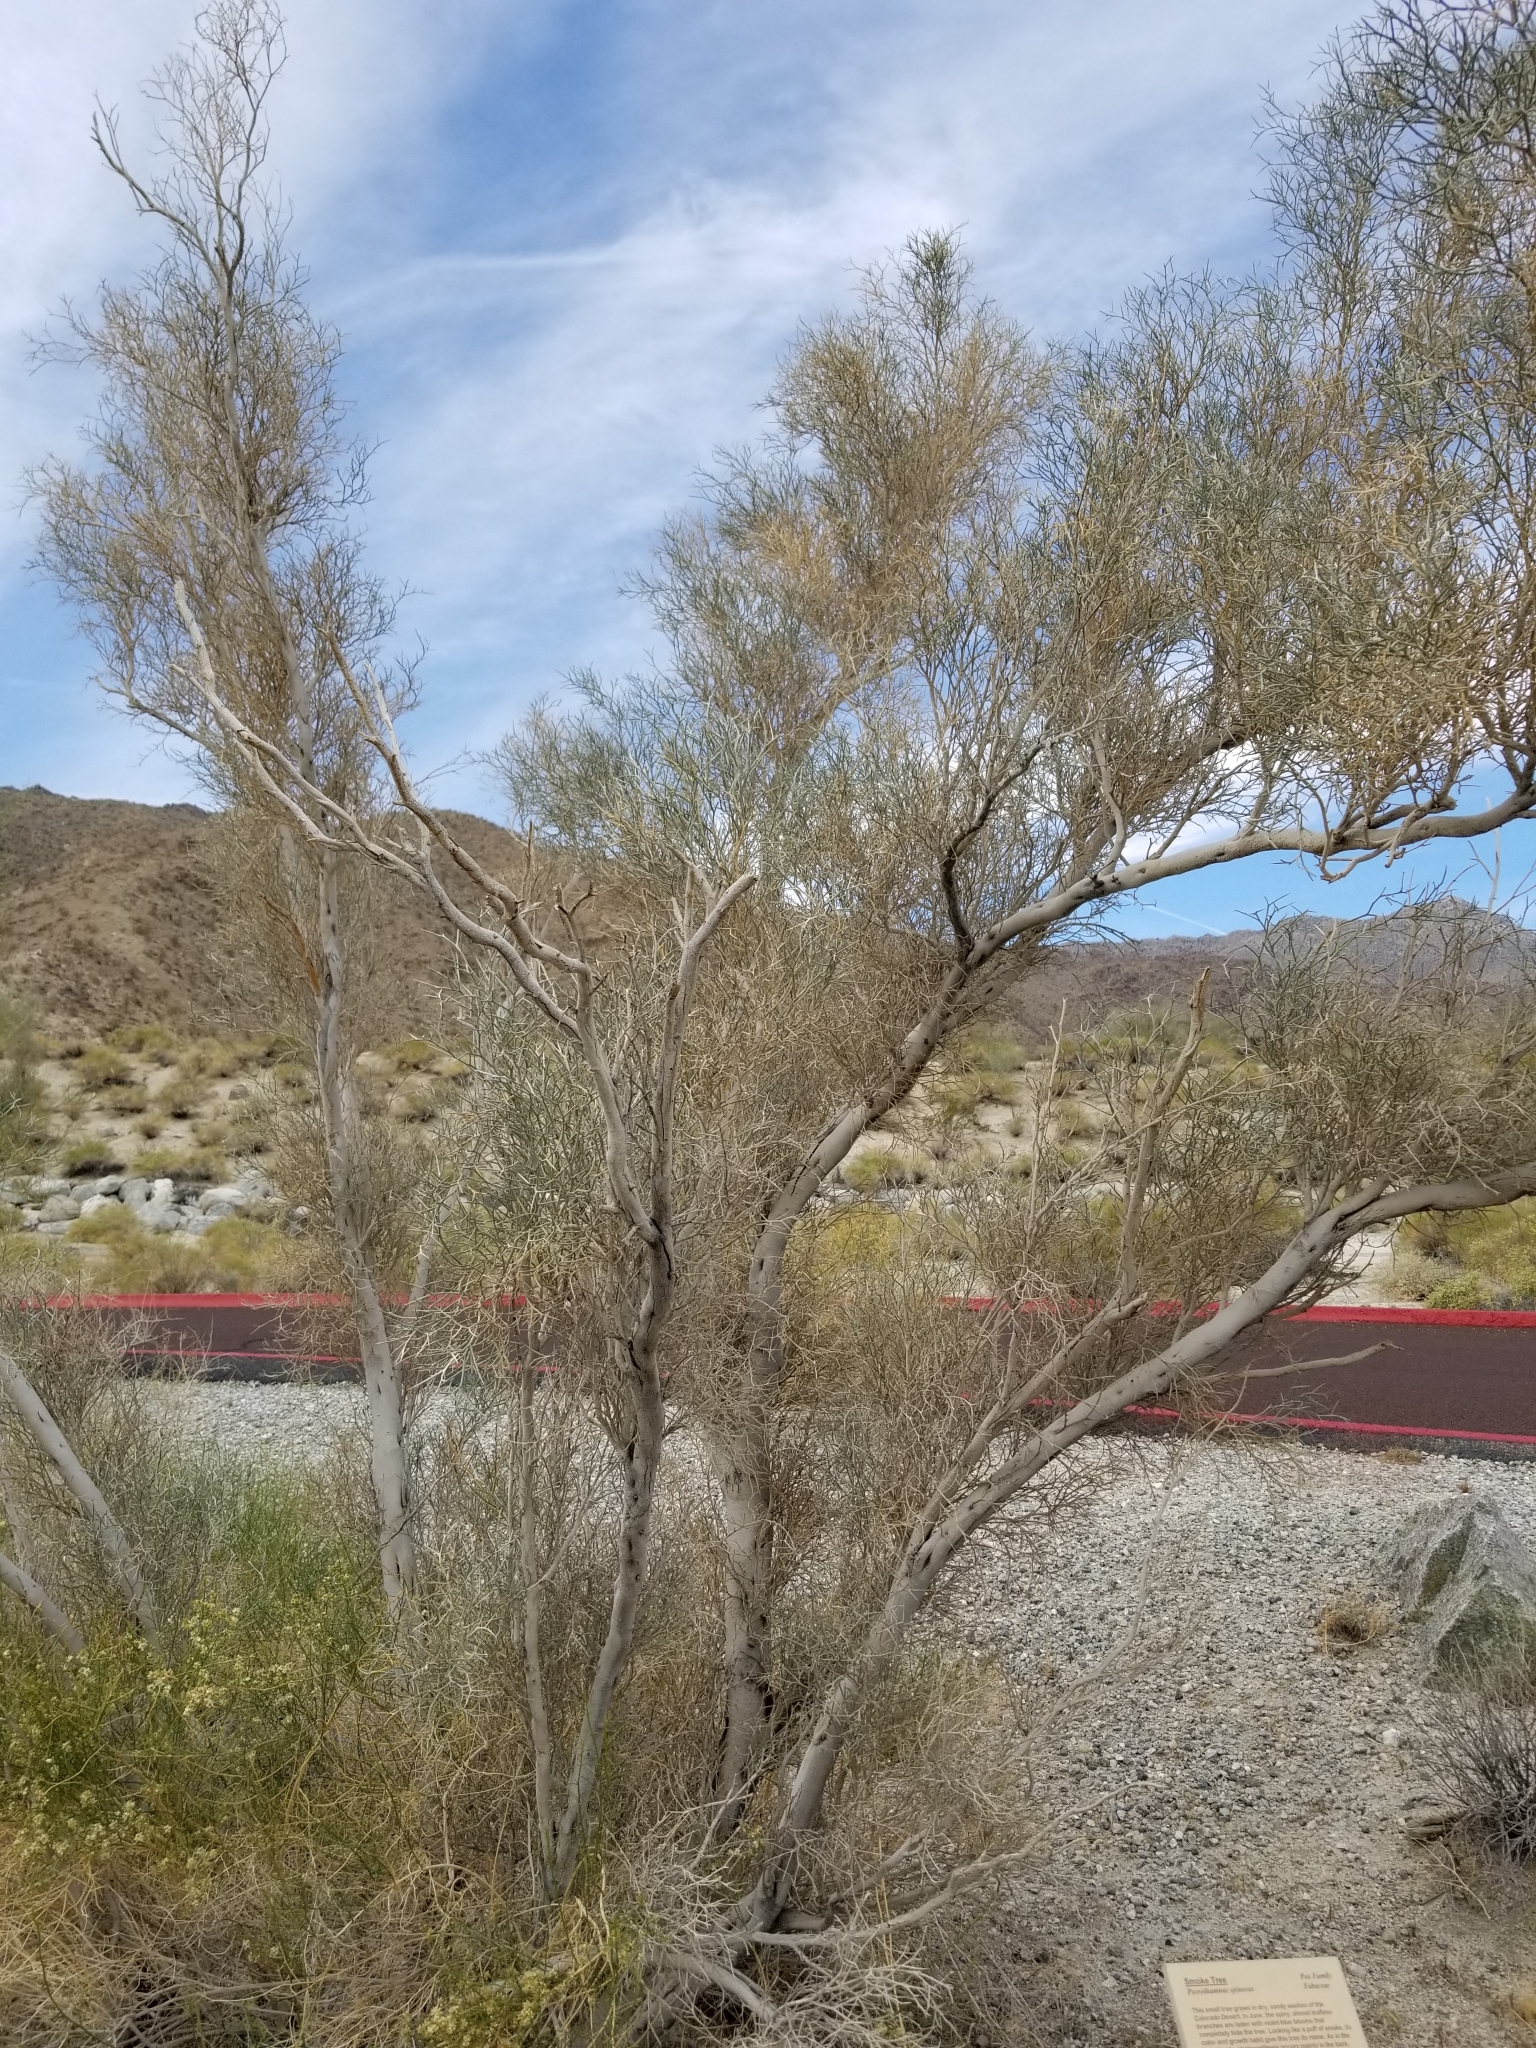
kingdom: Plantae
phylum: Tracheophyta
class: Magnoliopsida
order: Fabales
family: Fabaceae
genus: Psorothamnus
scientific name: Psorothamnus spinosus
